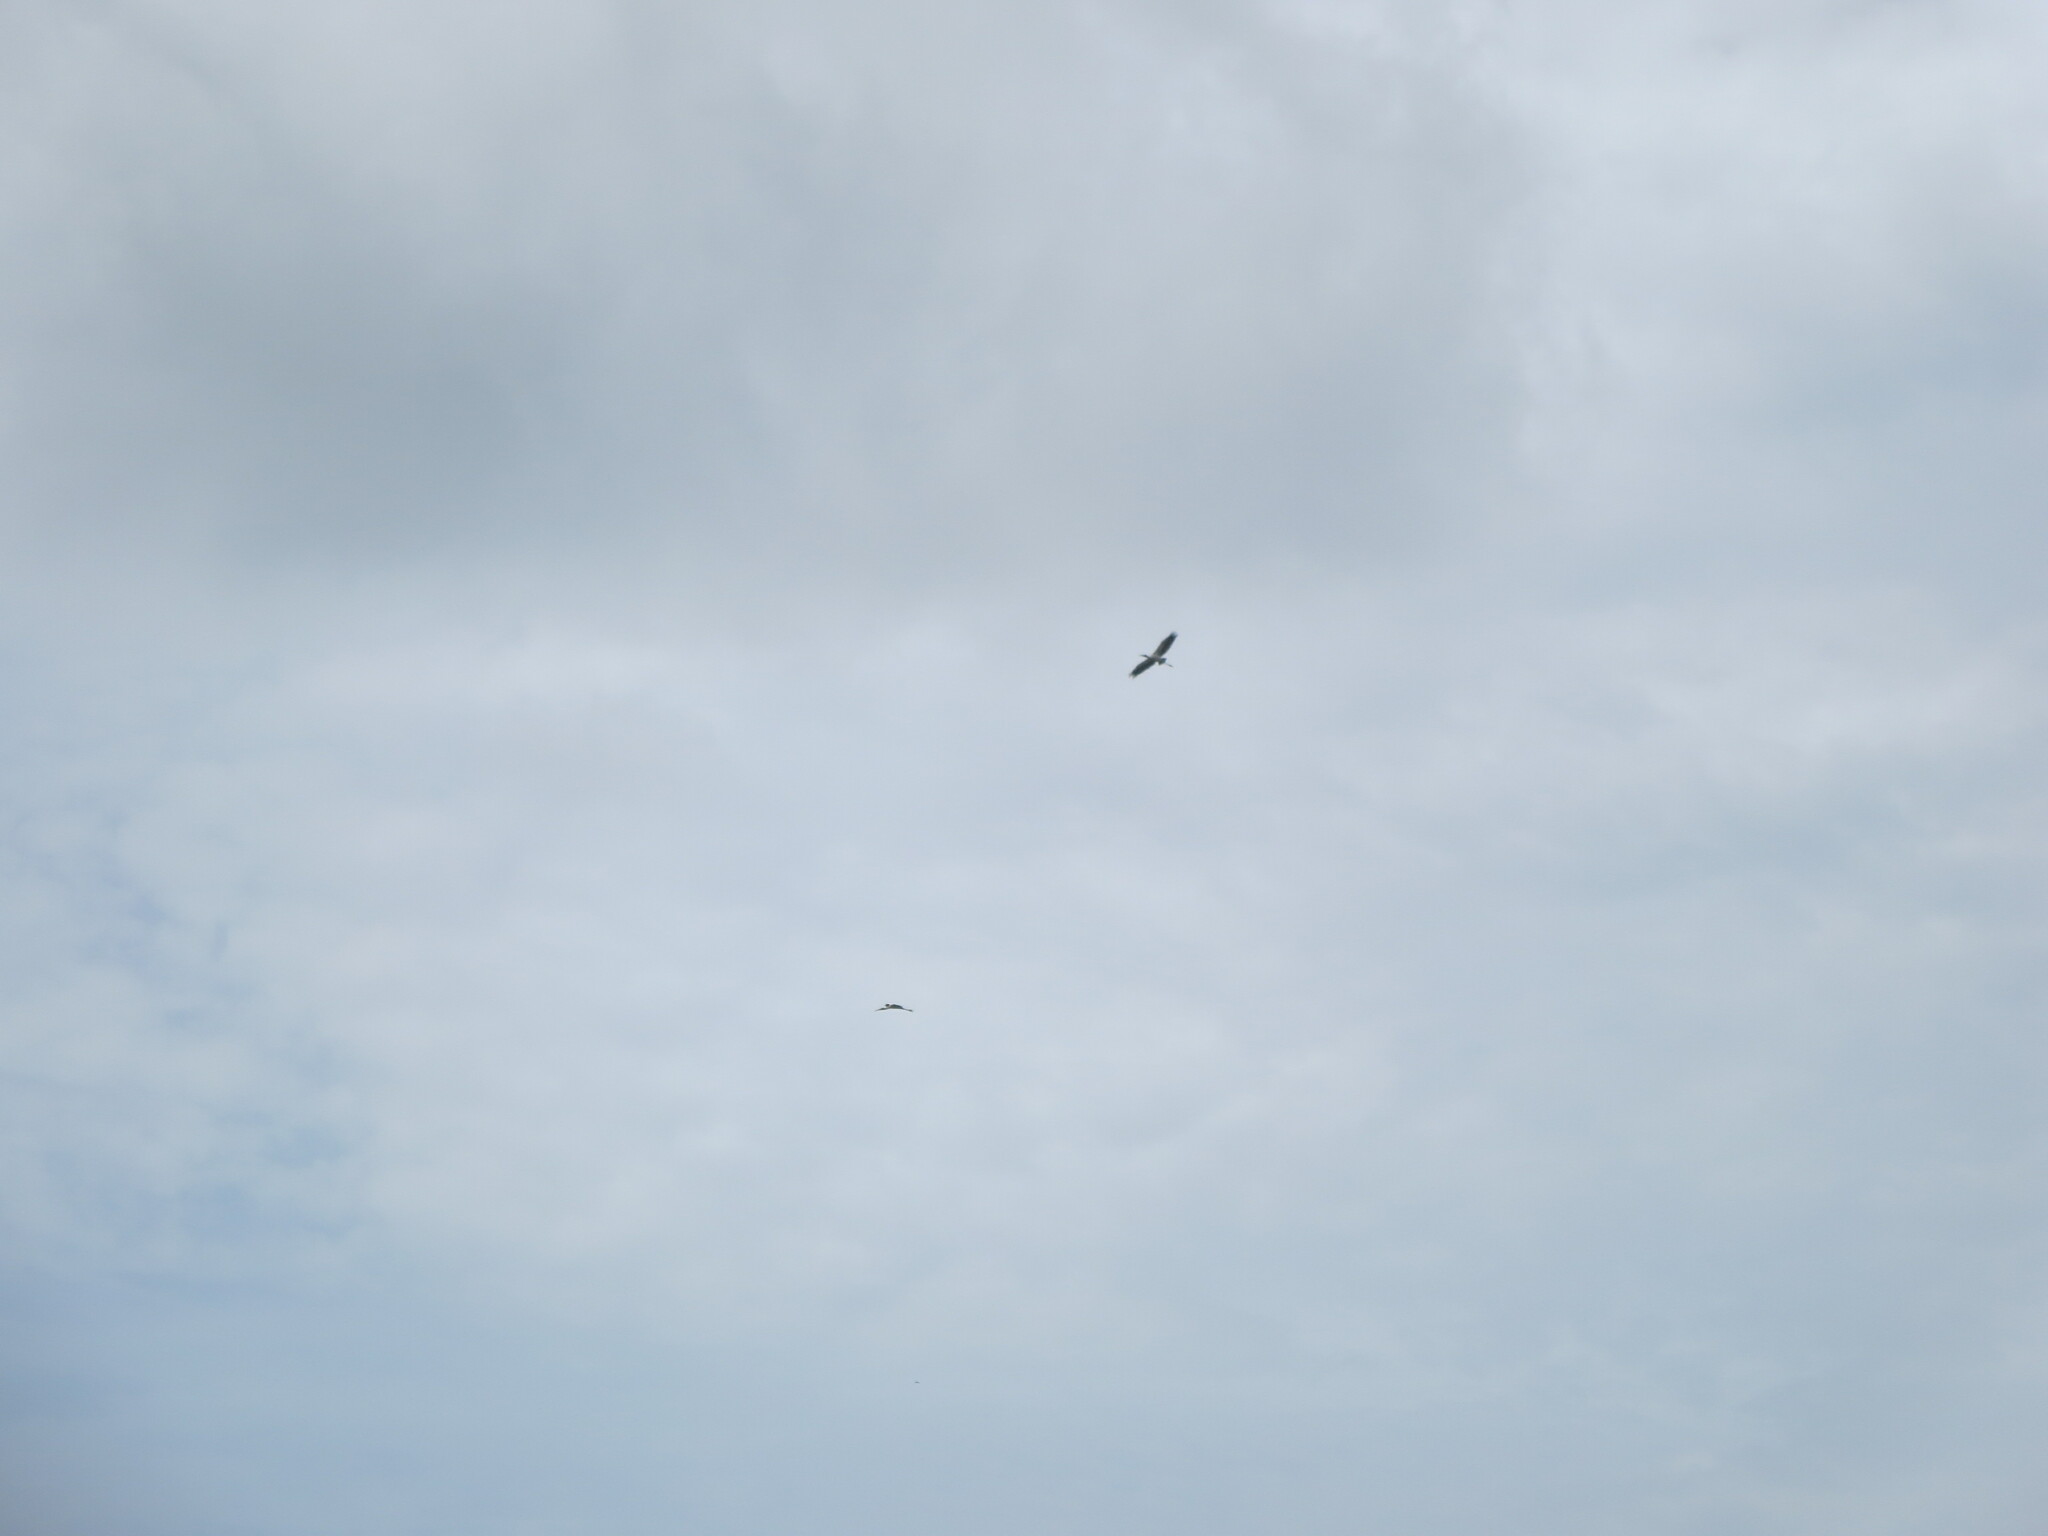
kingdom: Animalia
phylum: Chordata
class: Aves
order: Ciconiiformes
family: Ciconiidae
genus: Mycteria
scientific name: Mycteria americana
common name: Wood stork
